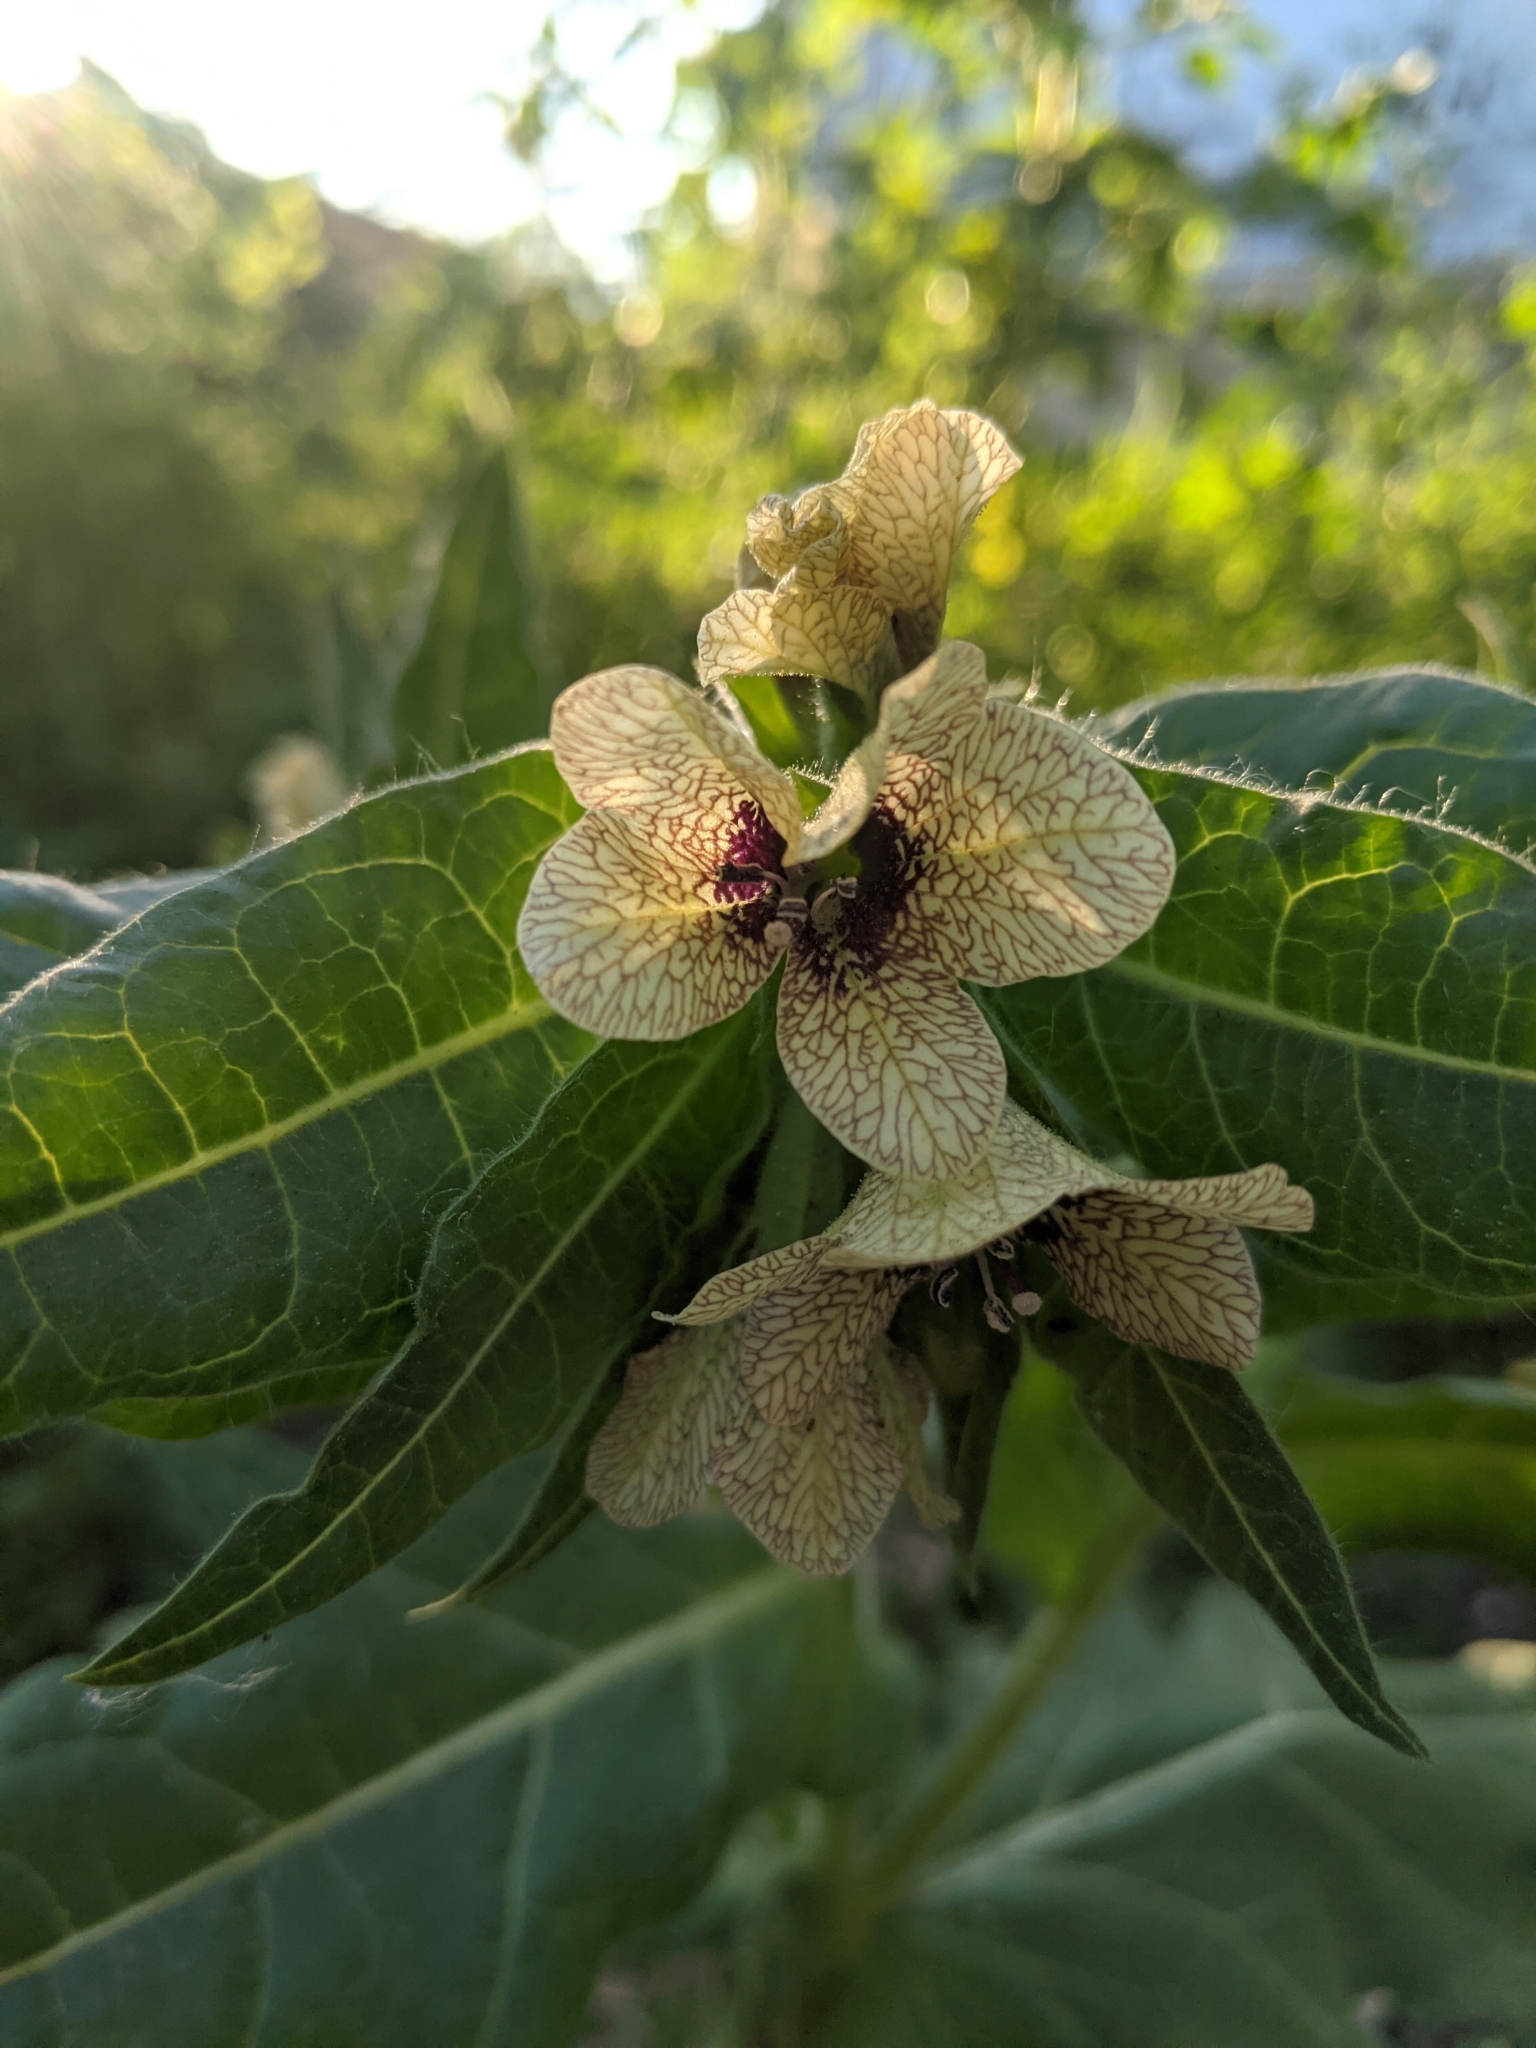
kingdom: Plantae
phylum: Tracheophyta
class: Magnoliopsida
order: Solanales
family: Solanaceae
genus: Hyoscyamus
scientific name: Hyoscyamus niger
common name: Henbane
